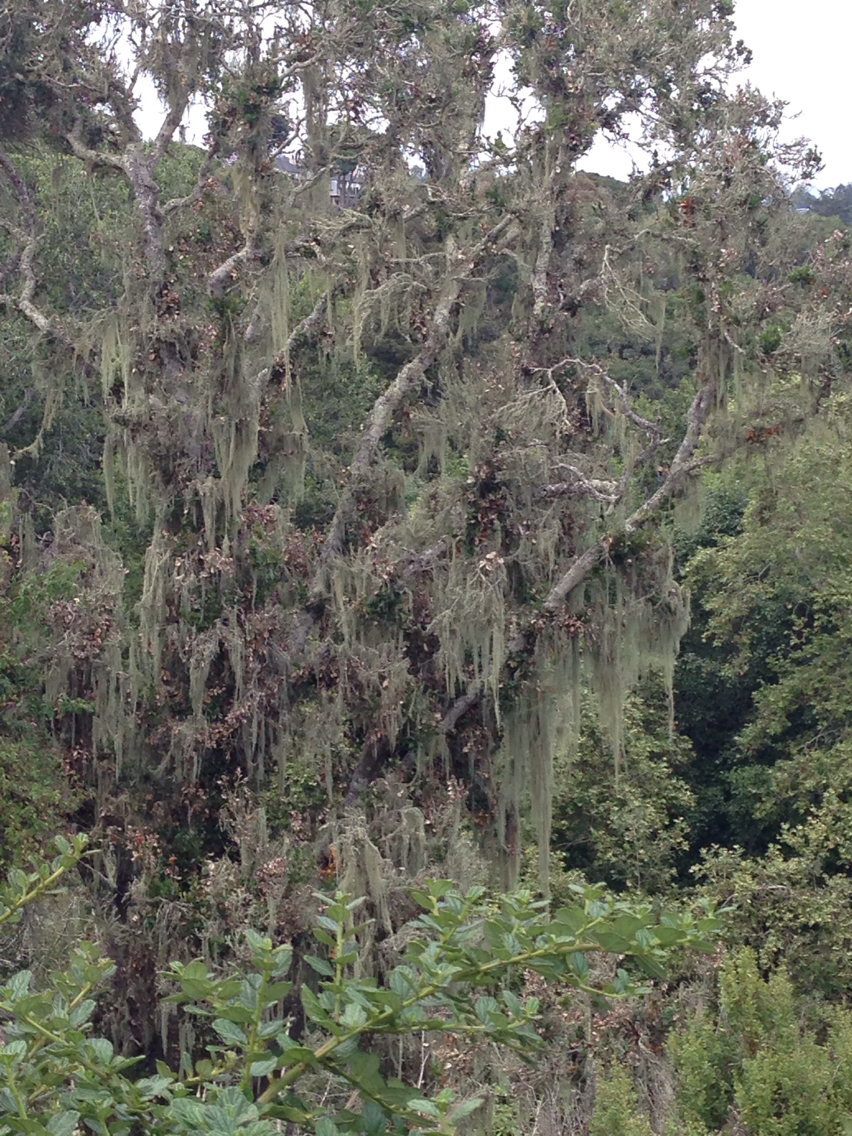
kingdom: Fungi
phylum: Ascomycota
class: Lecanoromycetes
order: Lecanorales
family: Ramalinaceae
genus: Ramalina
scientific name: Ramalina menziesii
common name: Lace lichen
